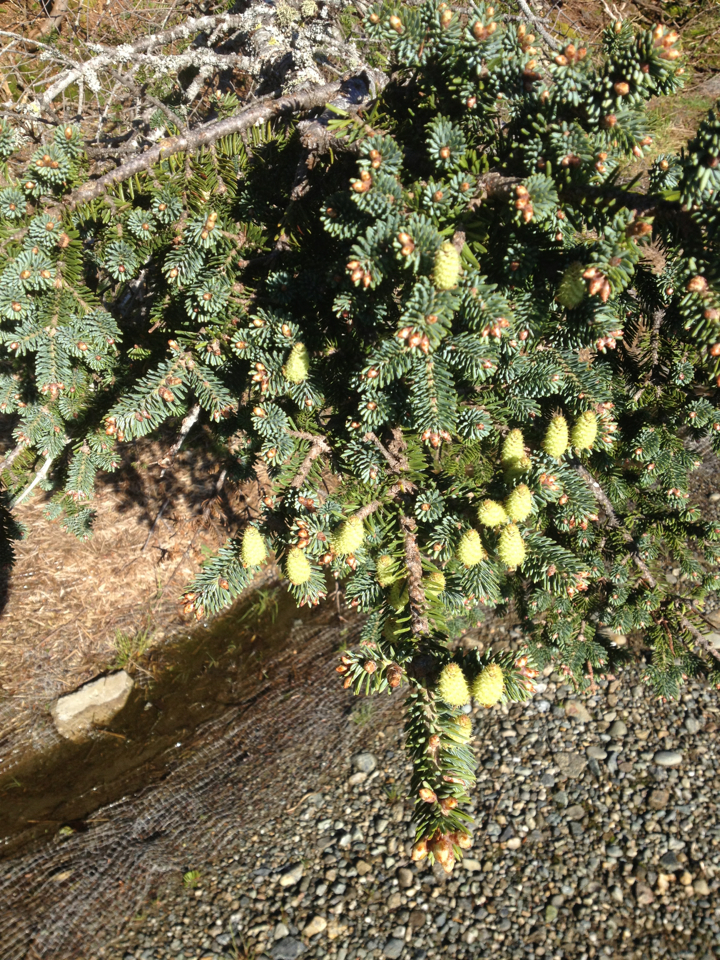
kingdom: Plantae
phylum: Tracheophyta
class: Pinopsida
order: Pinales
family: Pinaceae
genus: Abies
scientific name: Abies balsamea
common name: Balsam fir
